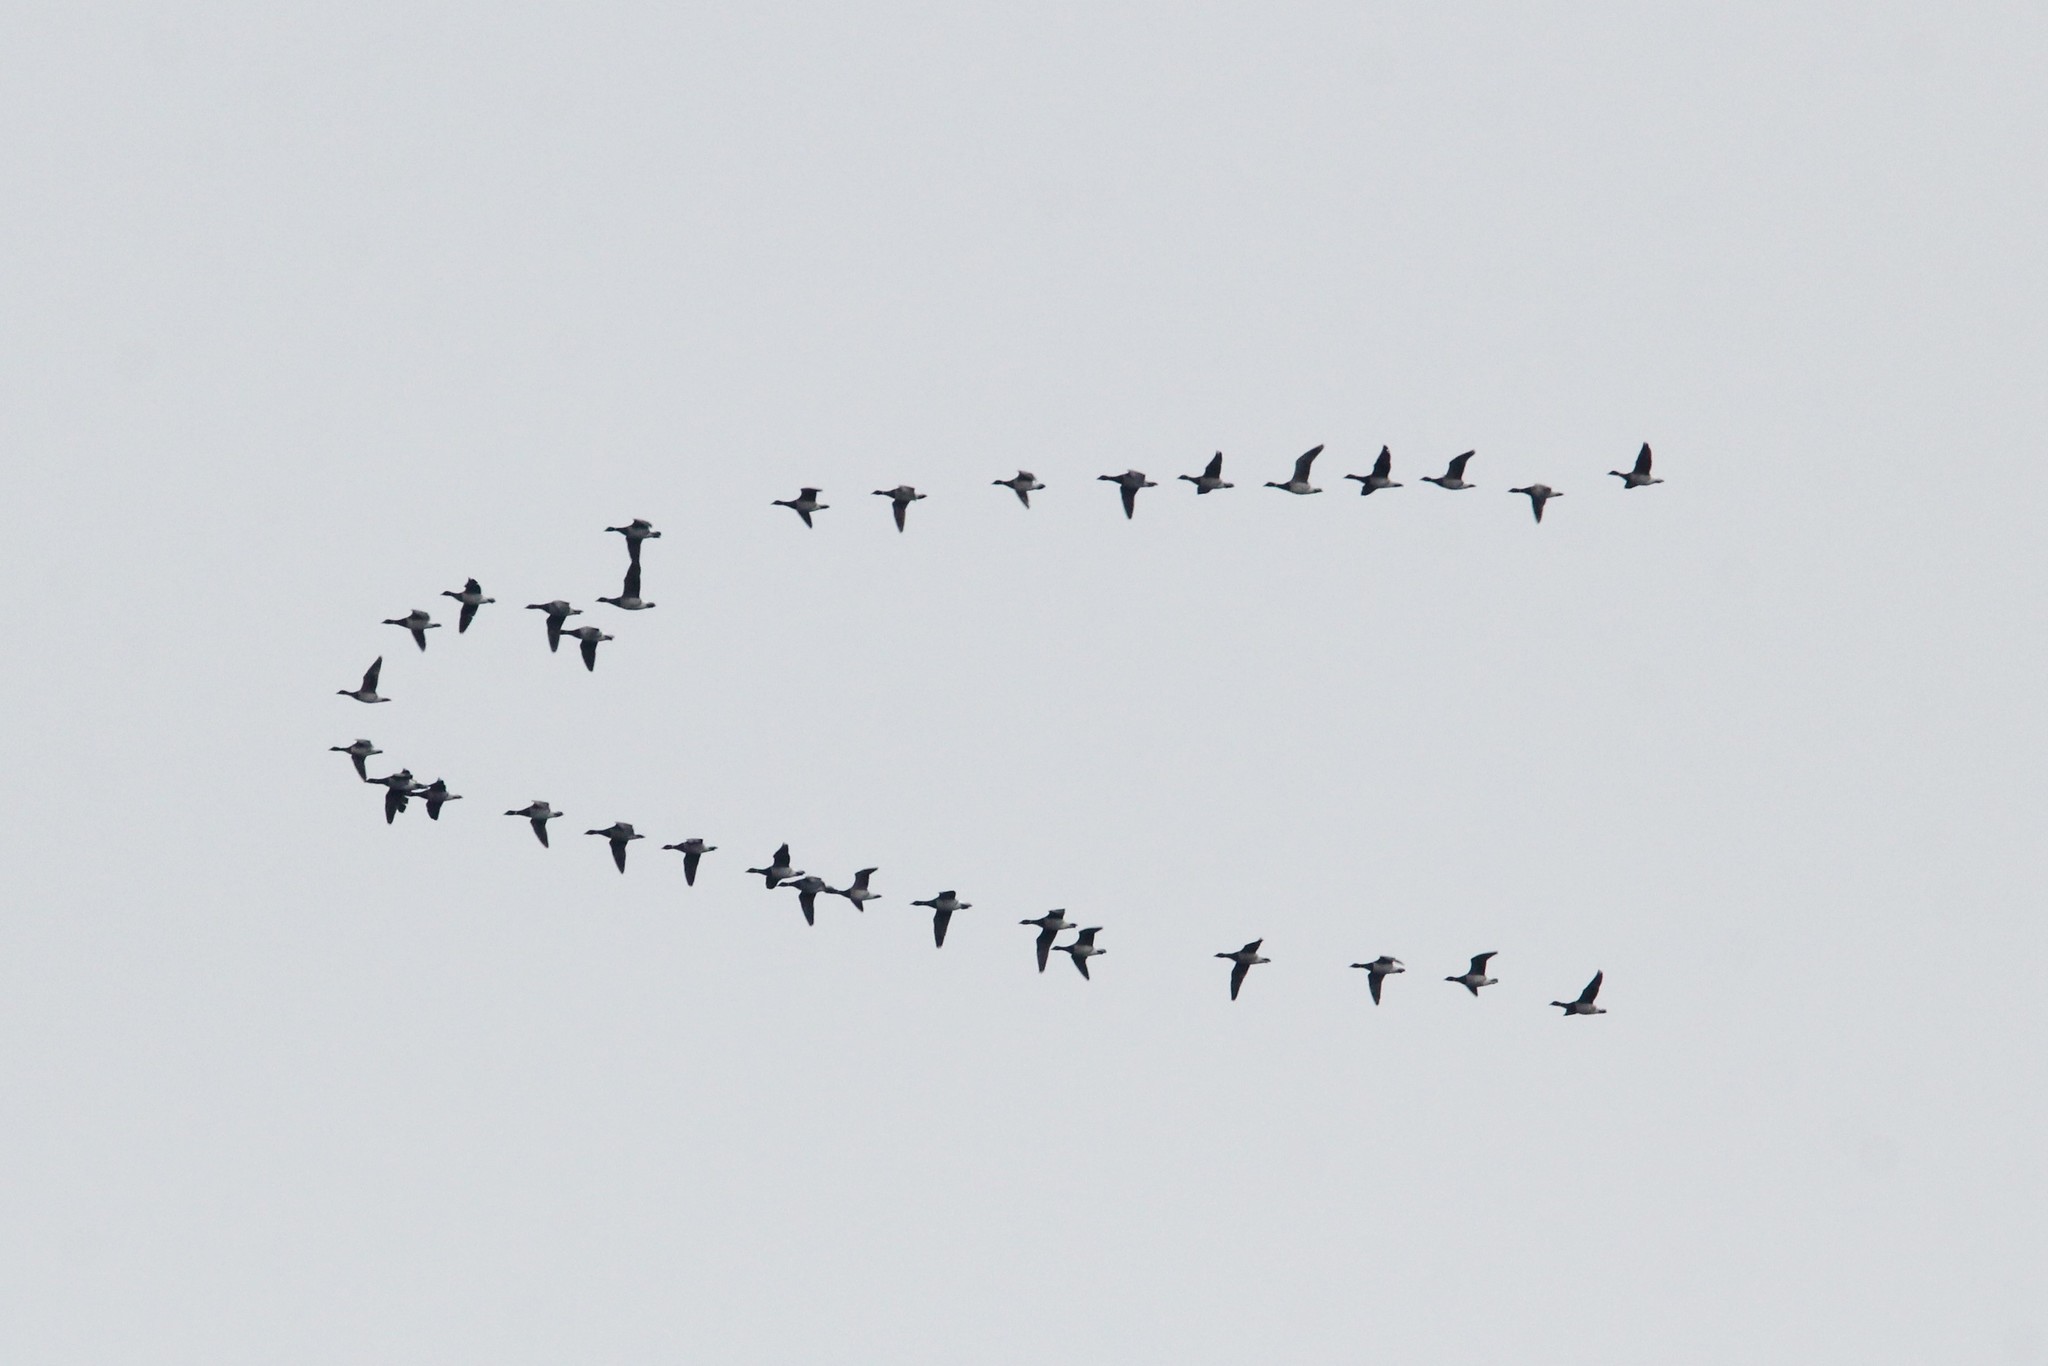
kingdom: Animalia
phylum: Chordata
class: Aves
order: Anseriformes
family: Anatidae
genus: Branta
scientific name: Branta bernicla
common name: Brant goose
